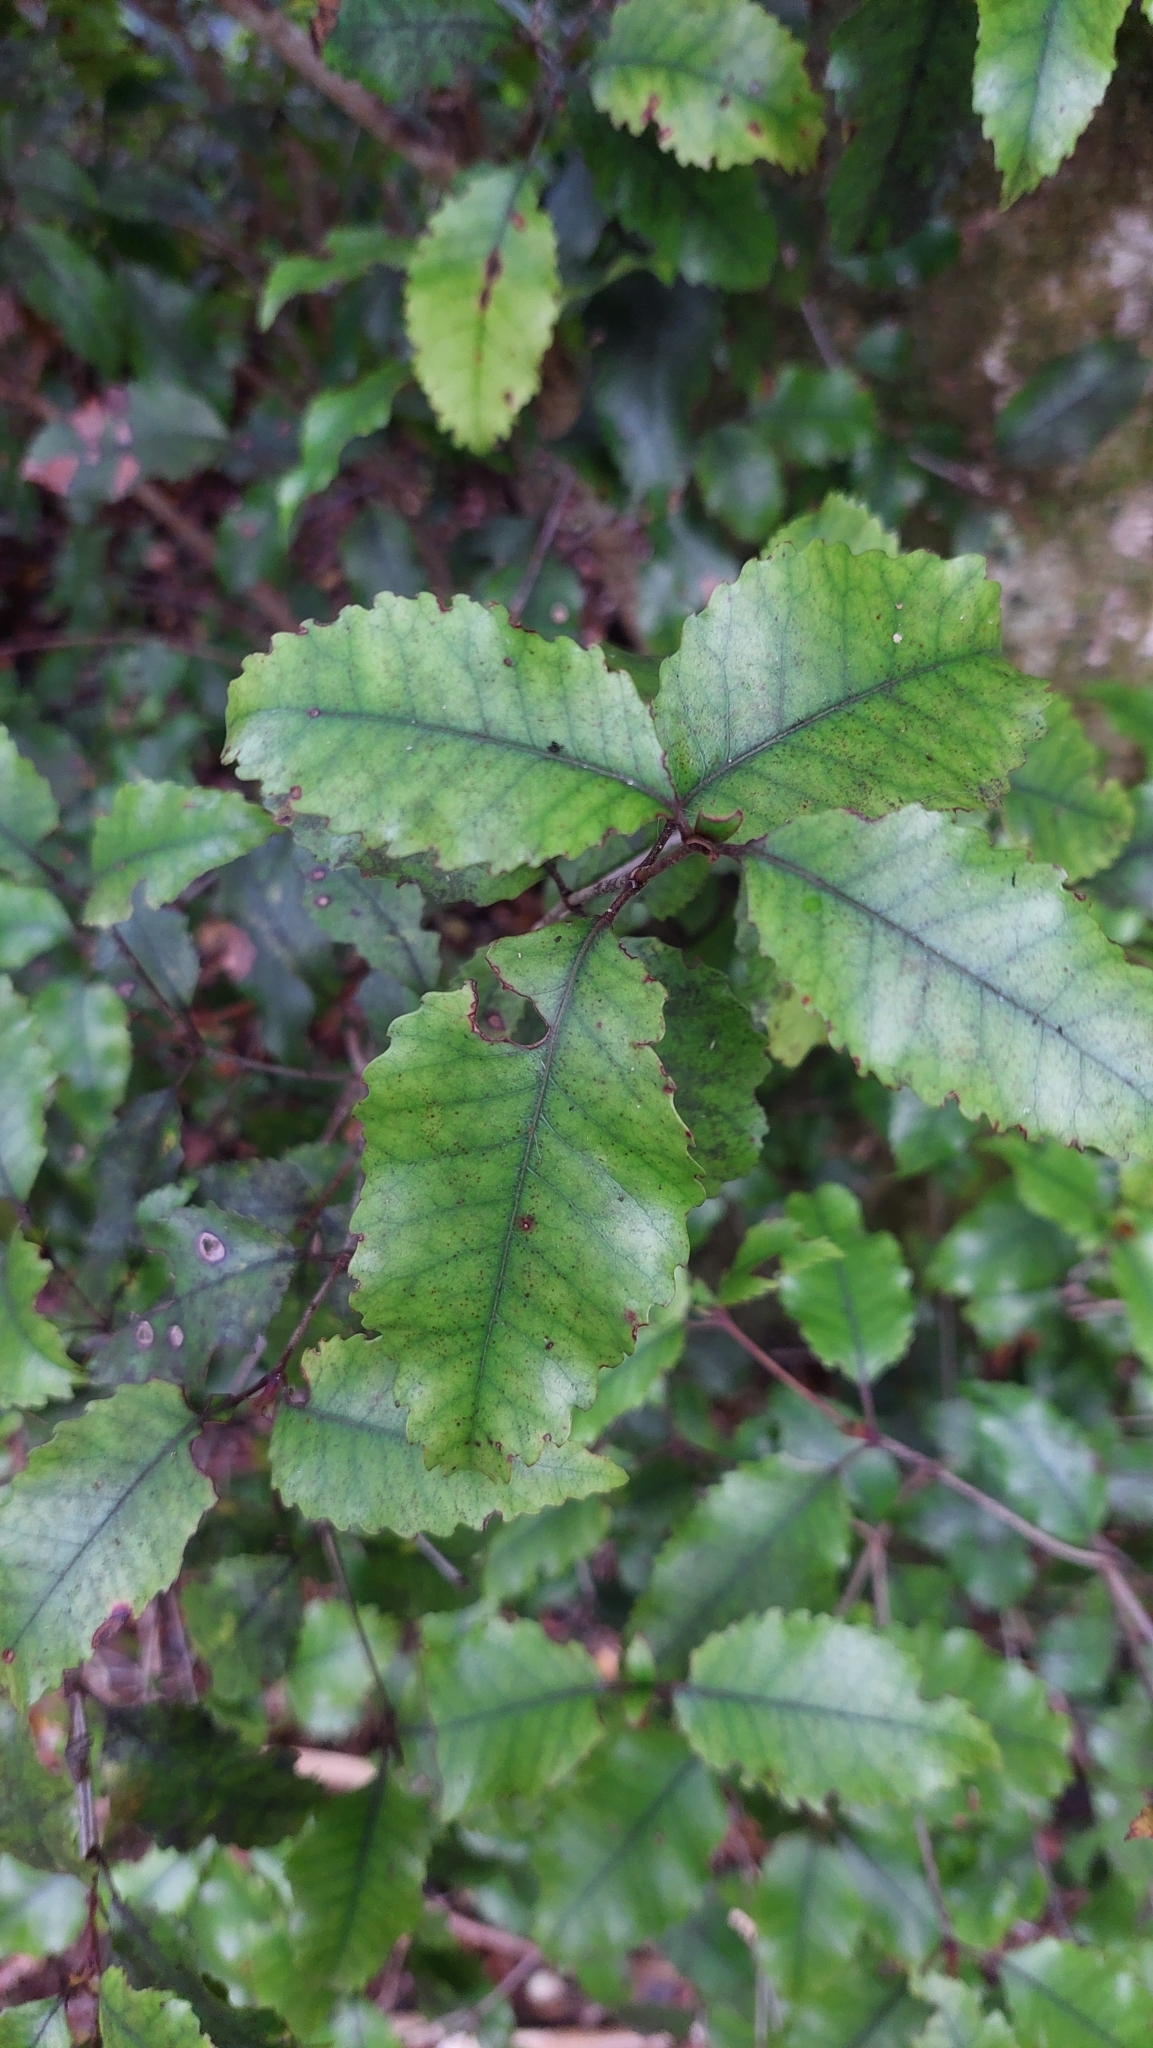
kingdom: Plantae
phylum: Tracheophyta
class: Magnoliopsida
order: Oxalidales
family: Cunoniaceae
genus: Pterophylla
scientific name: Pterophylla racemosa
